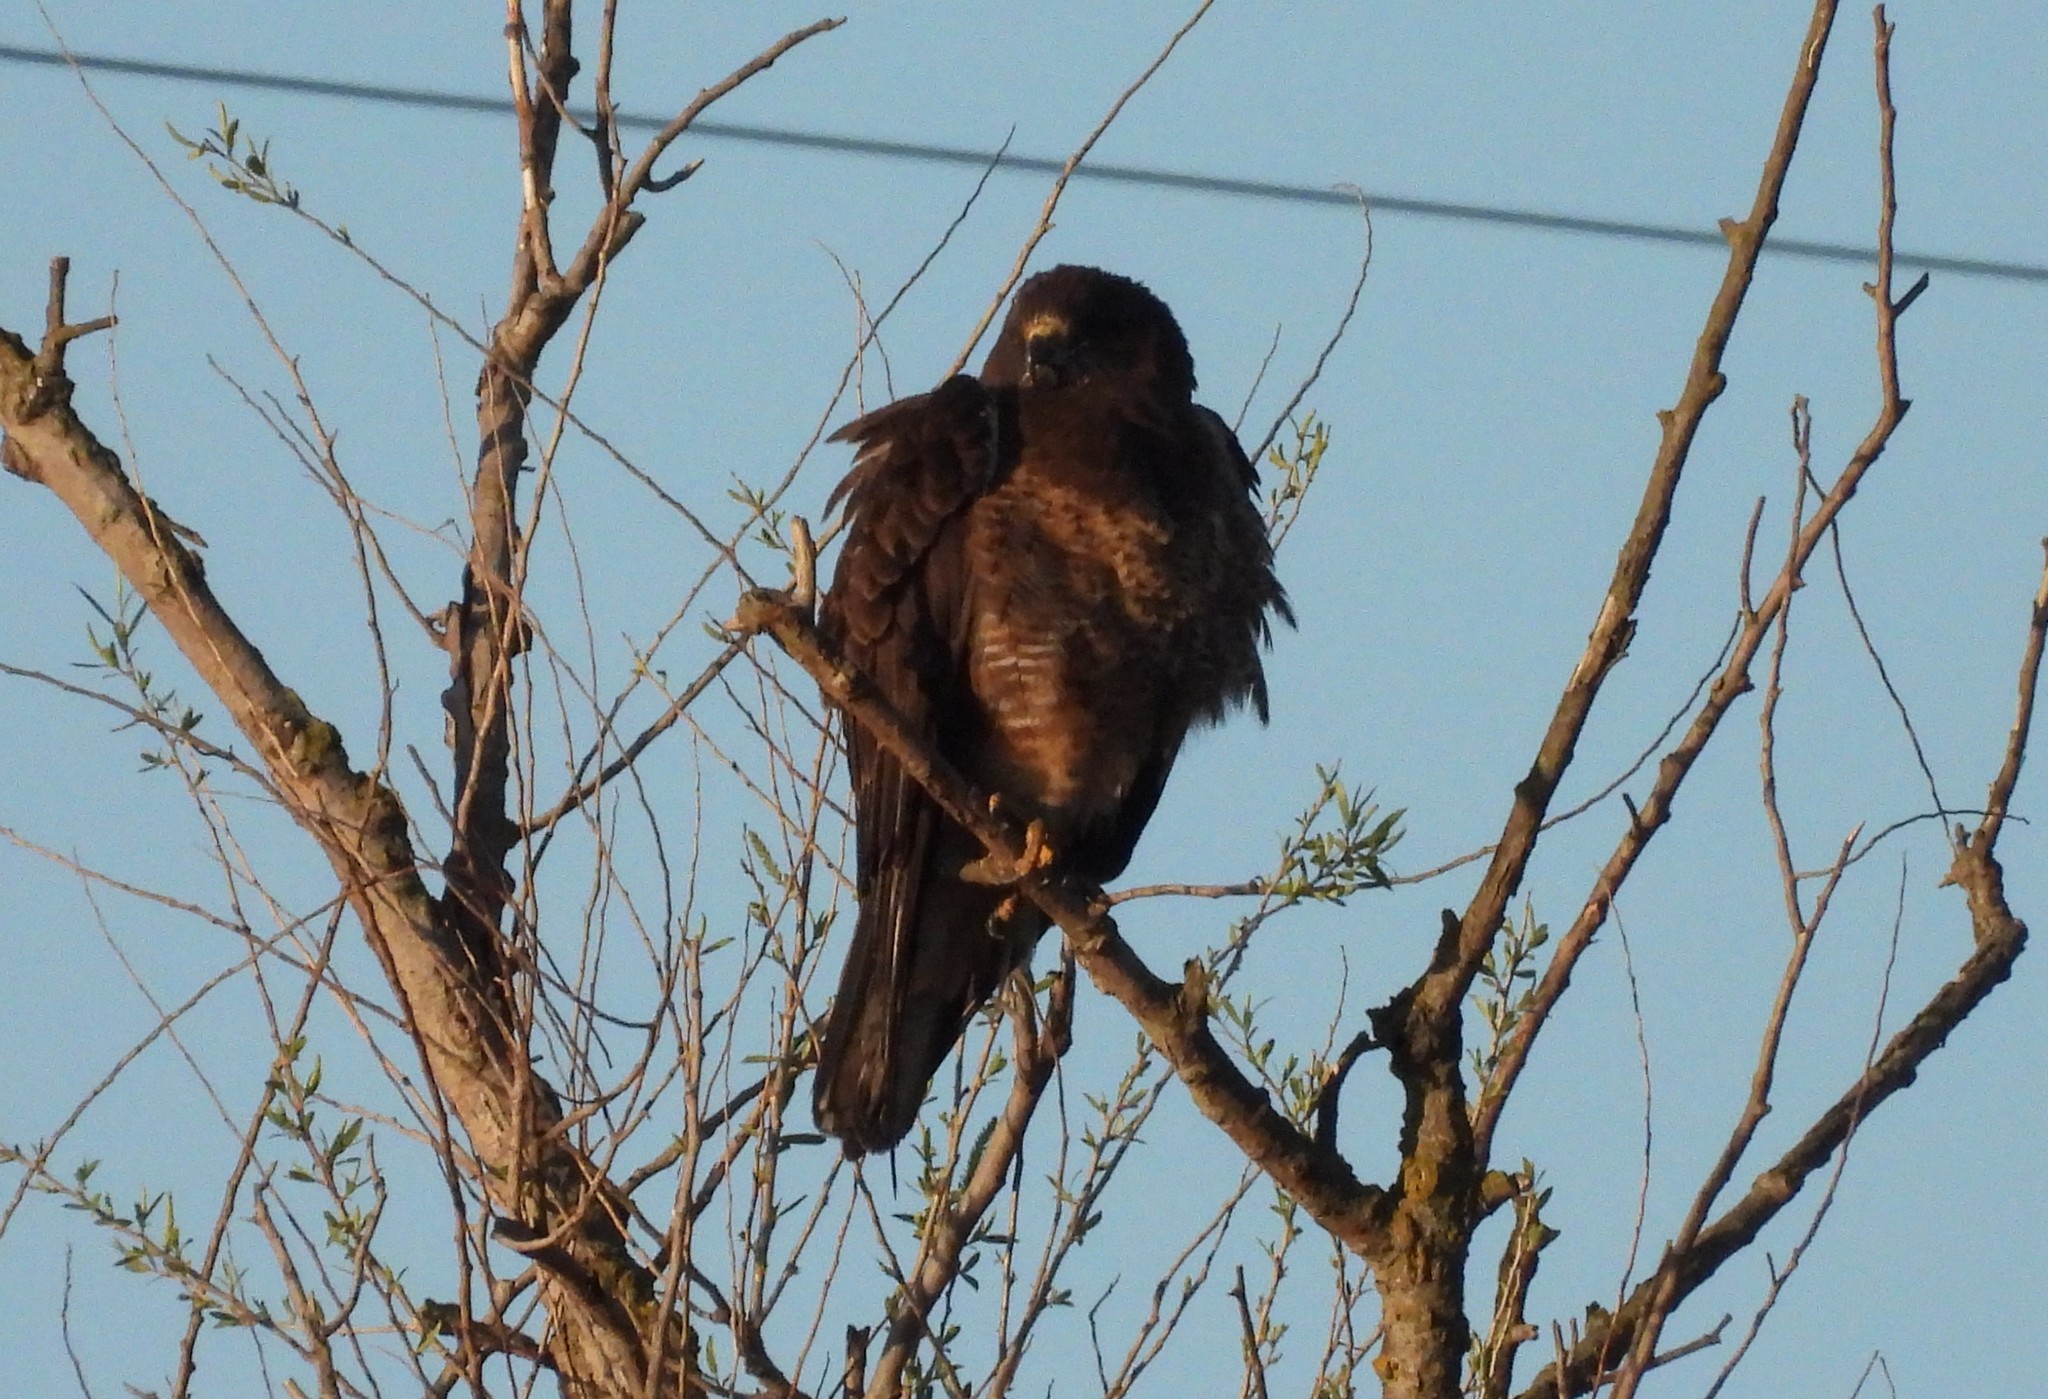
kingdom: Animalia
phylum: Chordata
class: Aves
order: Accipitriformes
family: Accipitridae
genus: Buteo
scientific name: Buteo swainsoni
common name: Swainson's hawk
